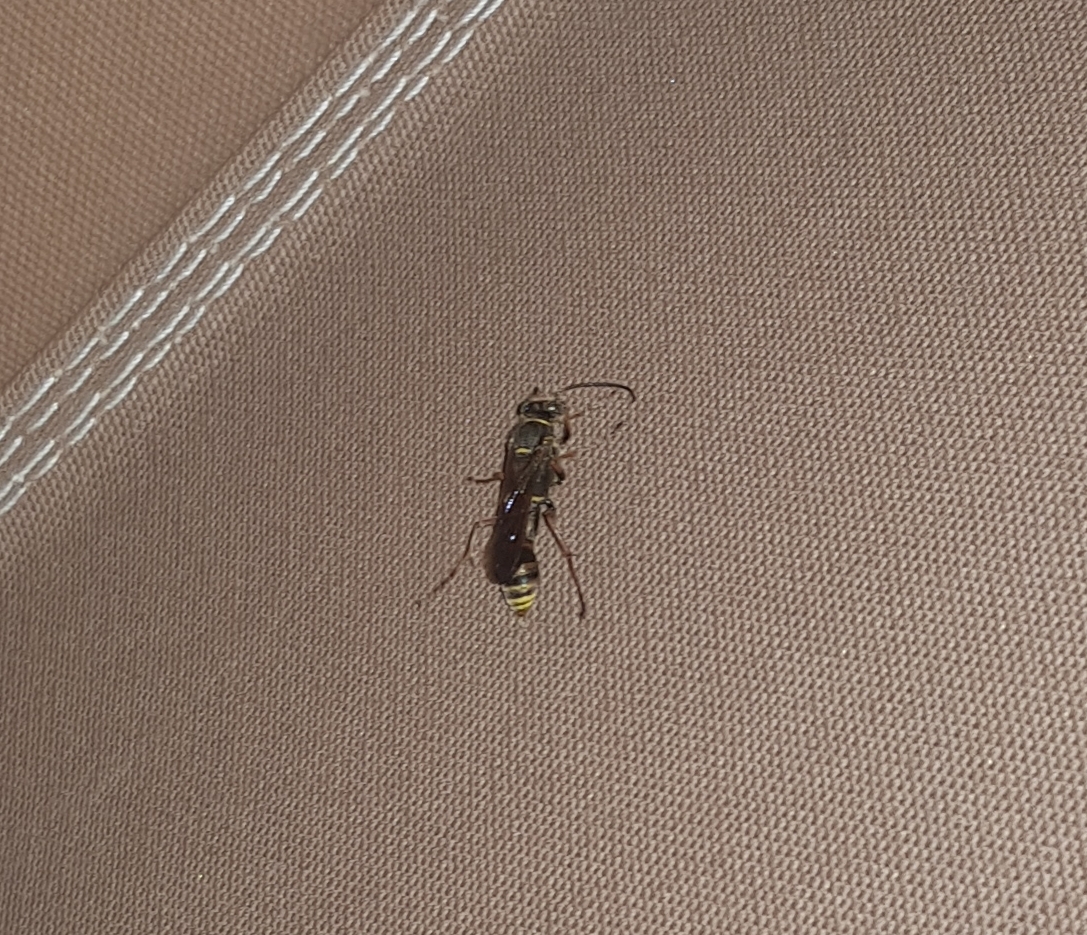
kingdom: Animalia
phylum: Arthropoda
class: Insecta
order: Hymenoptera
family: Sphecidae
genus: Sceliphron
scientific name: Sceliphron curvatum
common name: Pèlopèe
